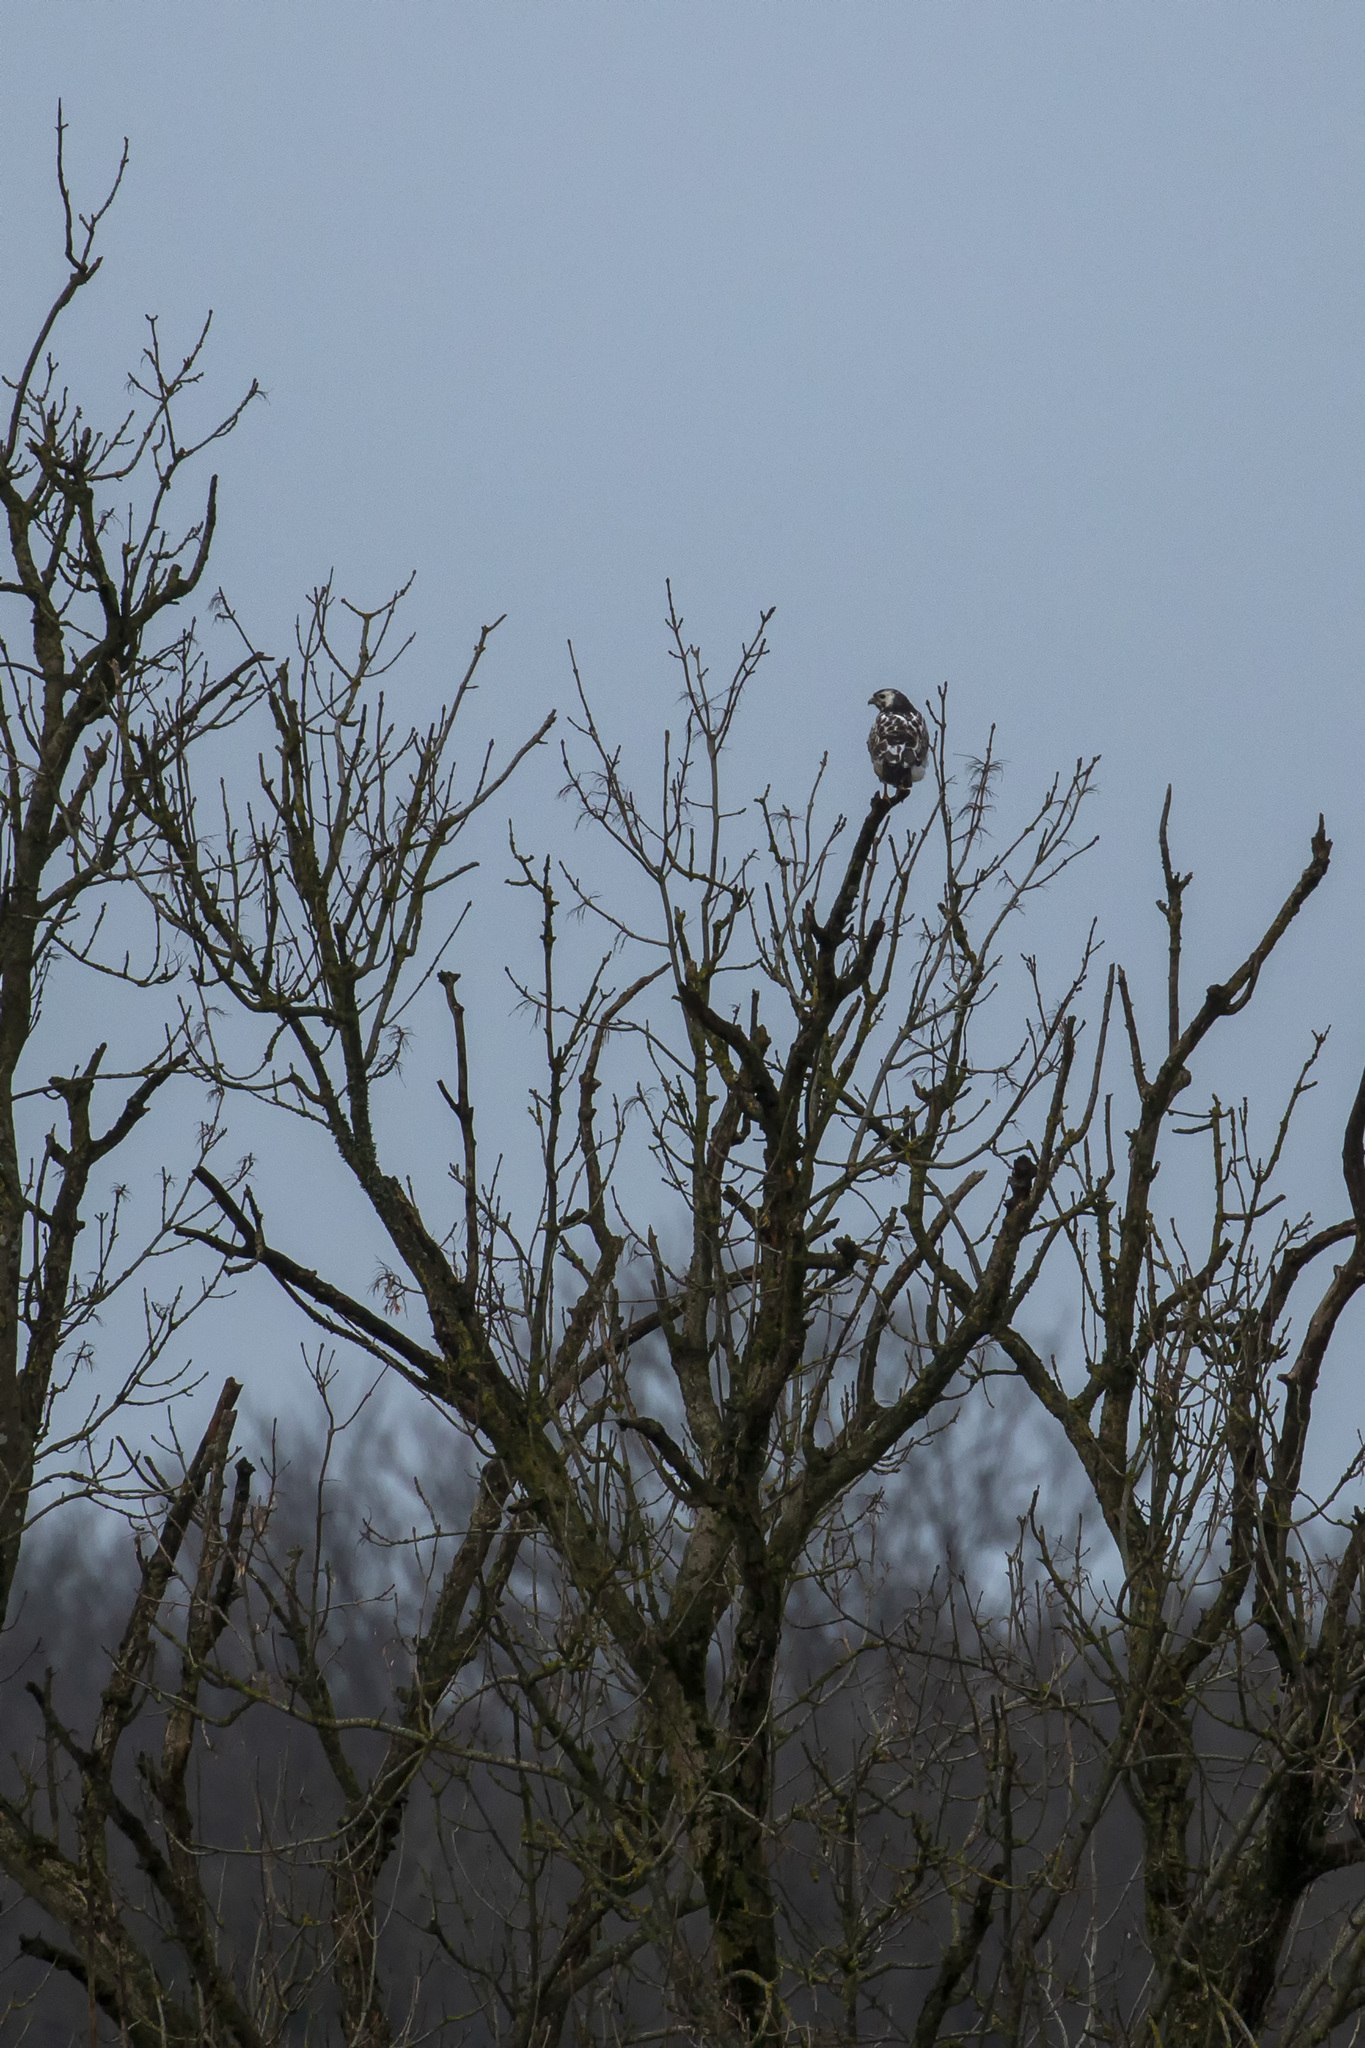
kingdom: Animalia
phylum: Chordata
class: Aves
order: Accipitriformes
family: Accipitridae
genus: Buteo
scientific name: Buteo buteo
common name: Common buzzard
